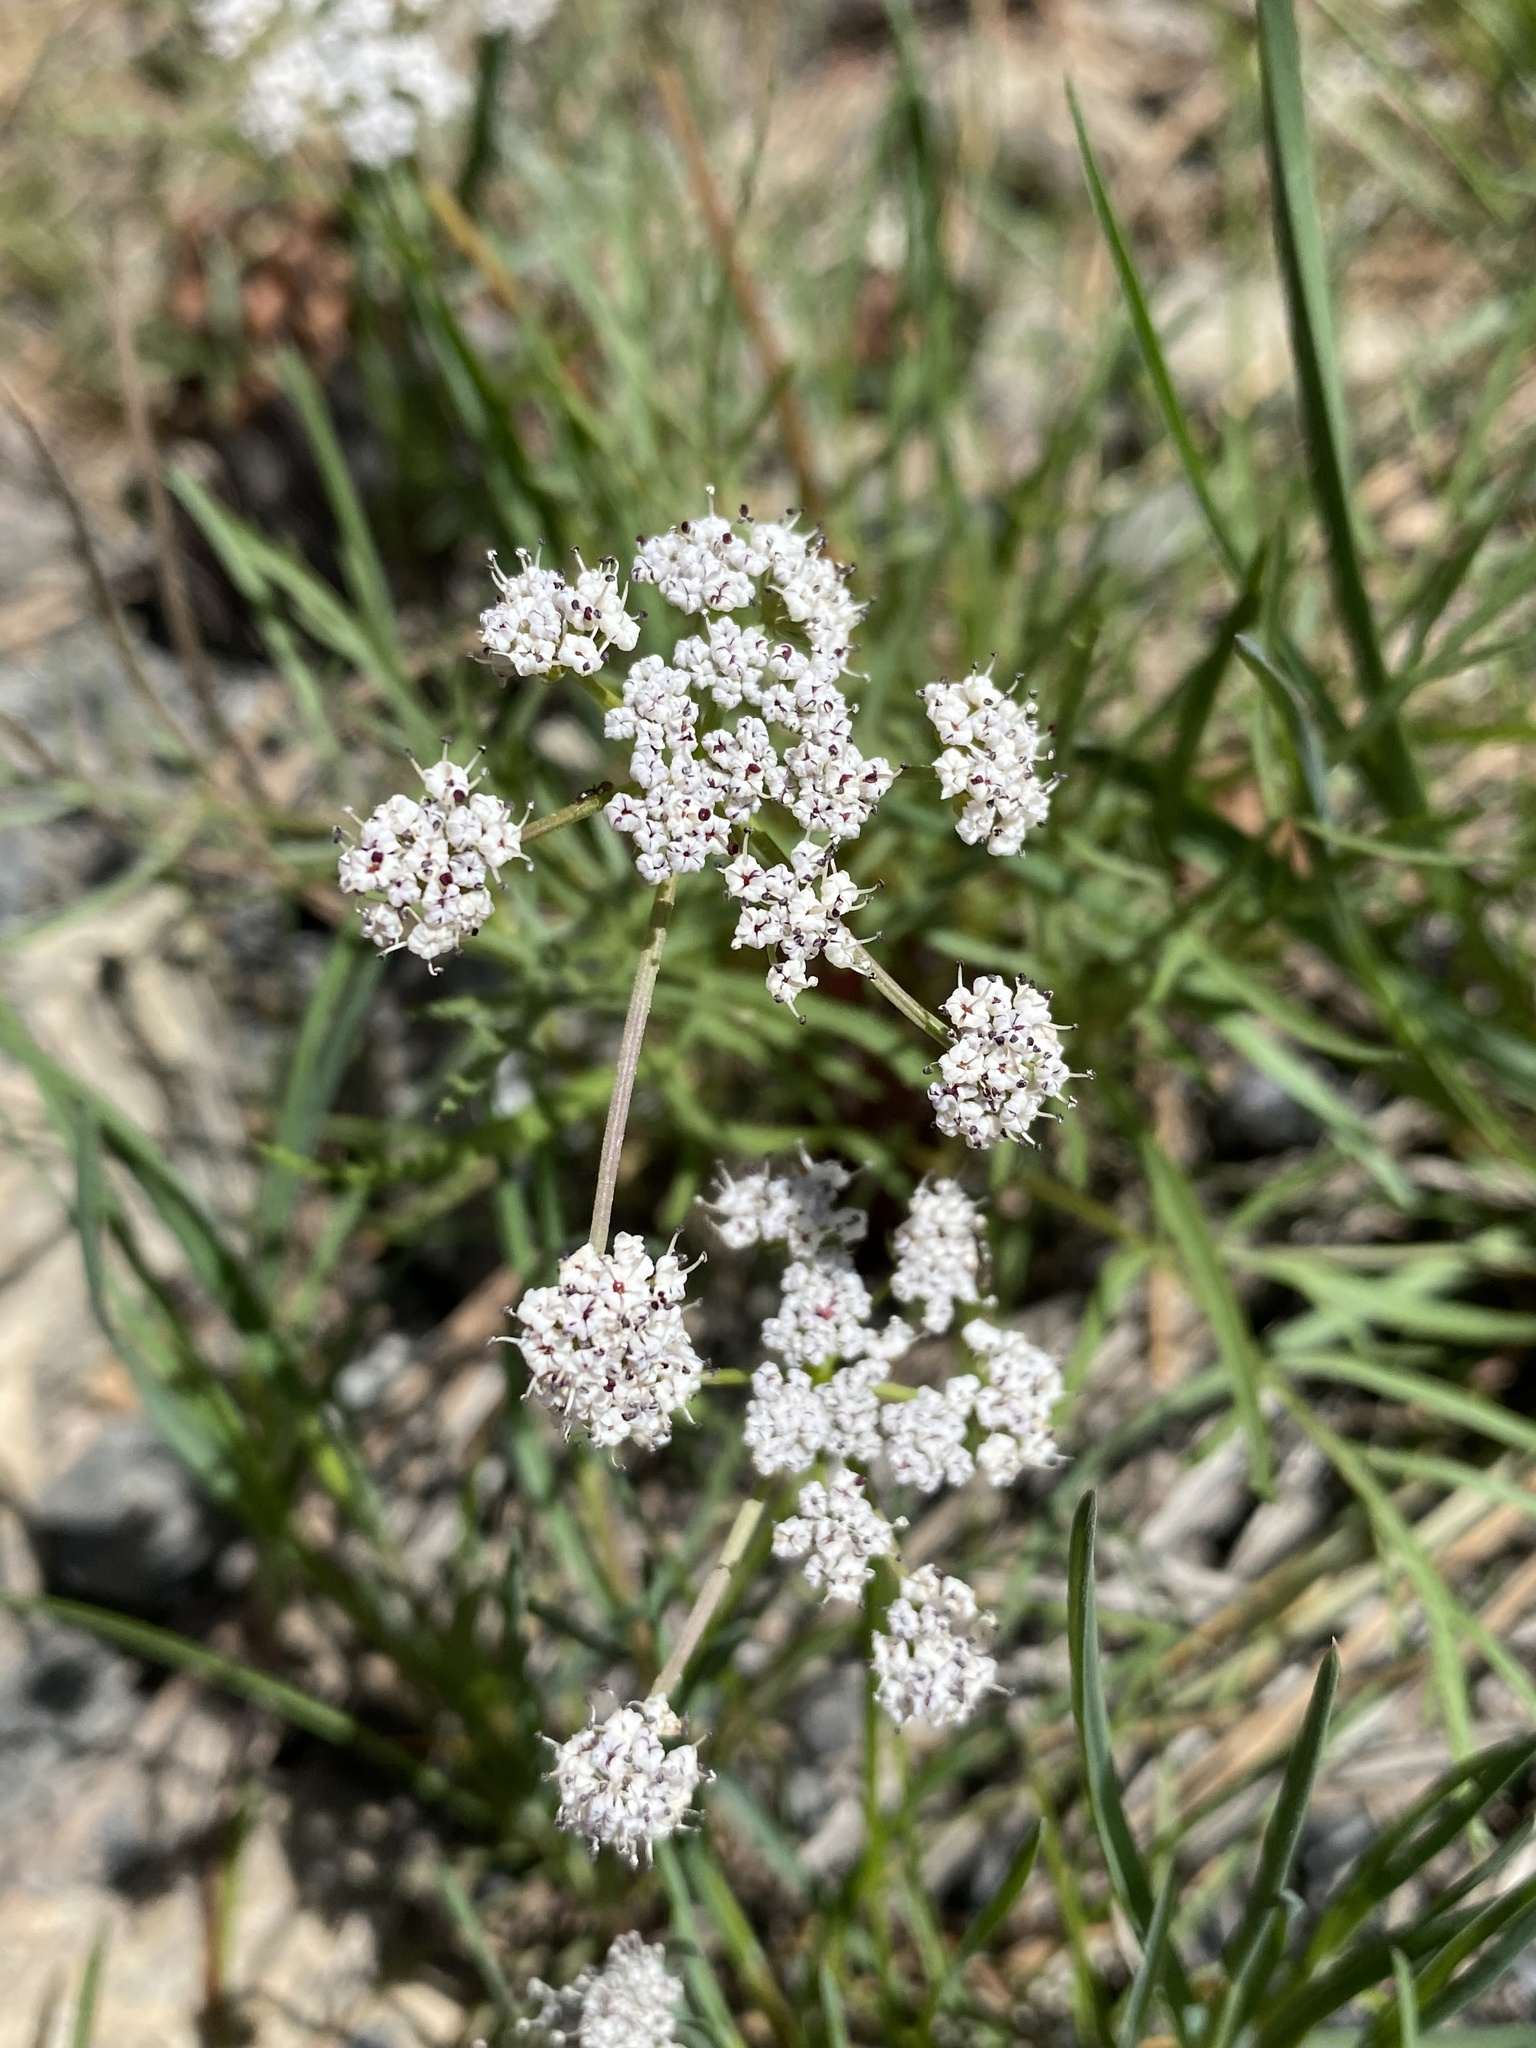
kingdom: Plantae
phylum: Tracheophyta
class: Magnoliopsida
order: Apiales
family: Apiaceae
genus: Lomatium
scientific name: Lomatium geyeri
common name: Geyer's biscuitroot
